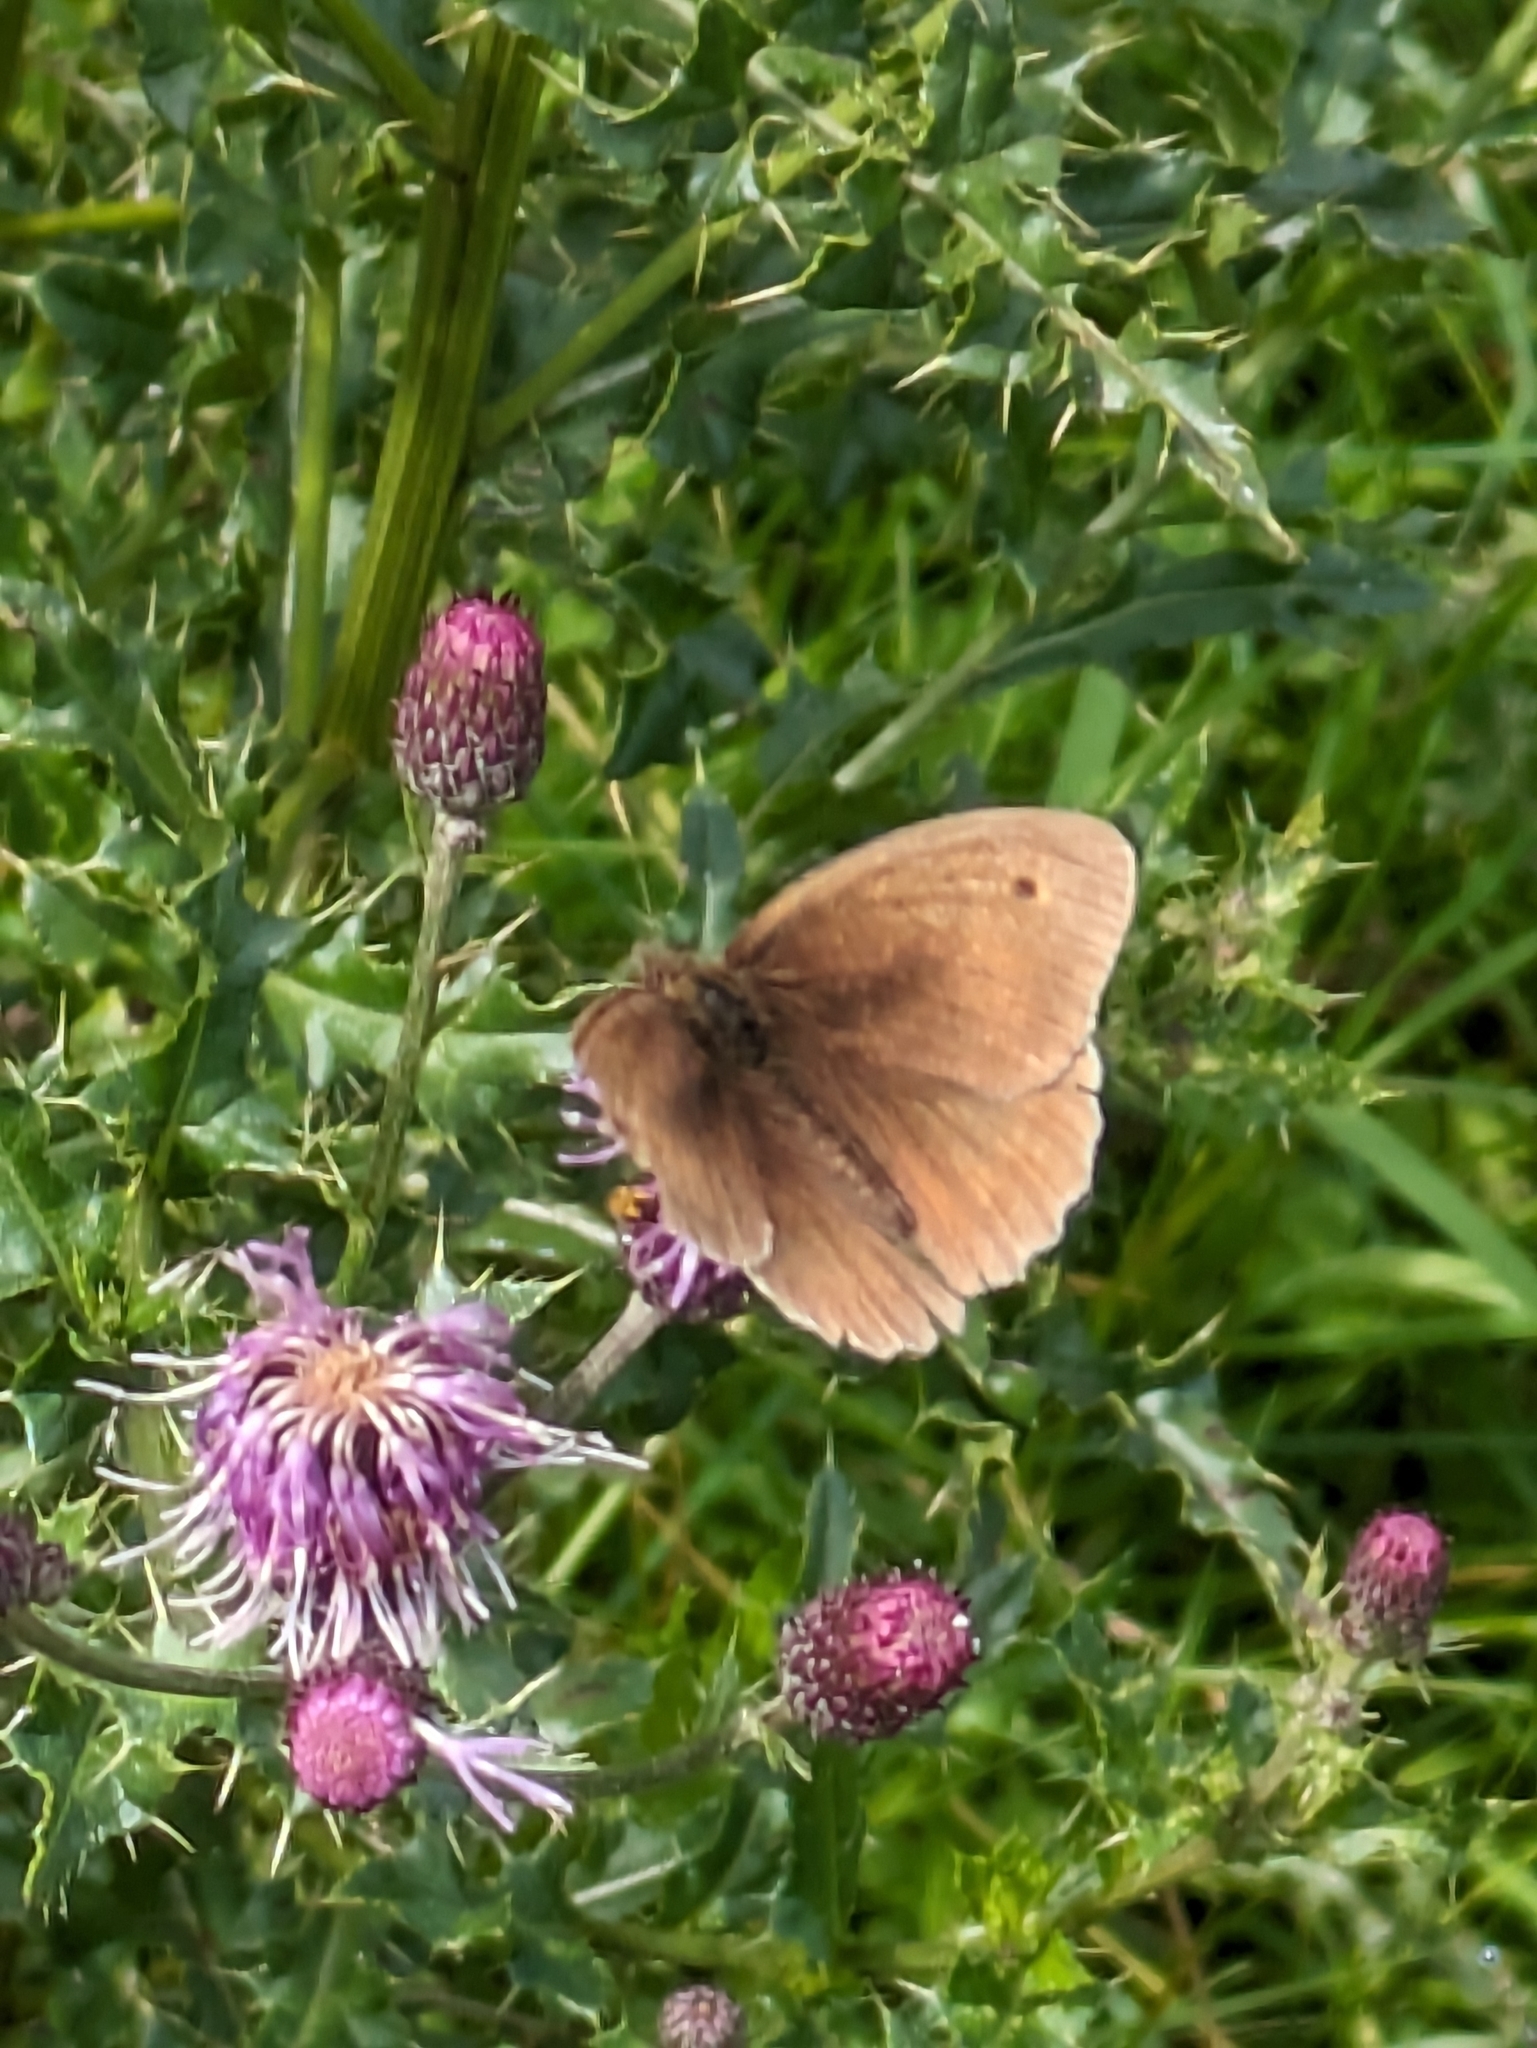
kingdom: Animalia
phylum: Arthropoda
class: Insecta
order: Lepidoptera
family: Nymphalidae
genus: Maniola
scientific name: Maniola jurtina
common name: Meadow brown
